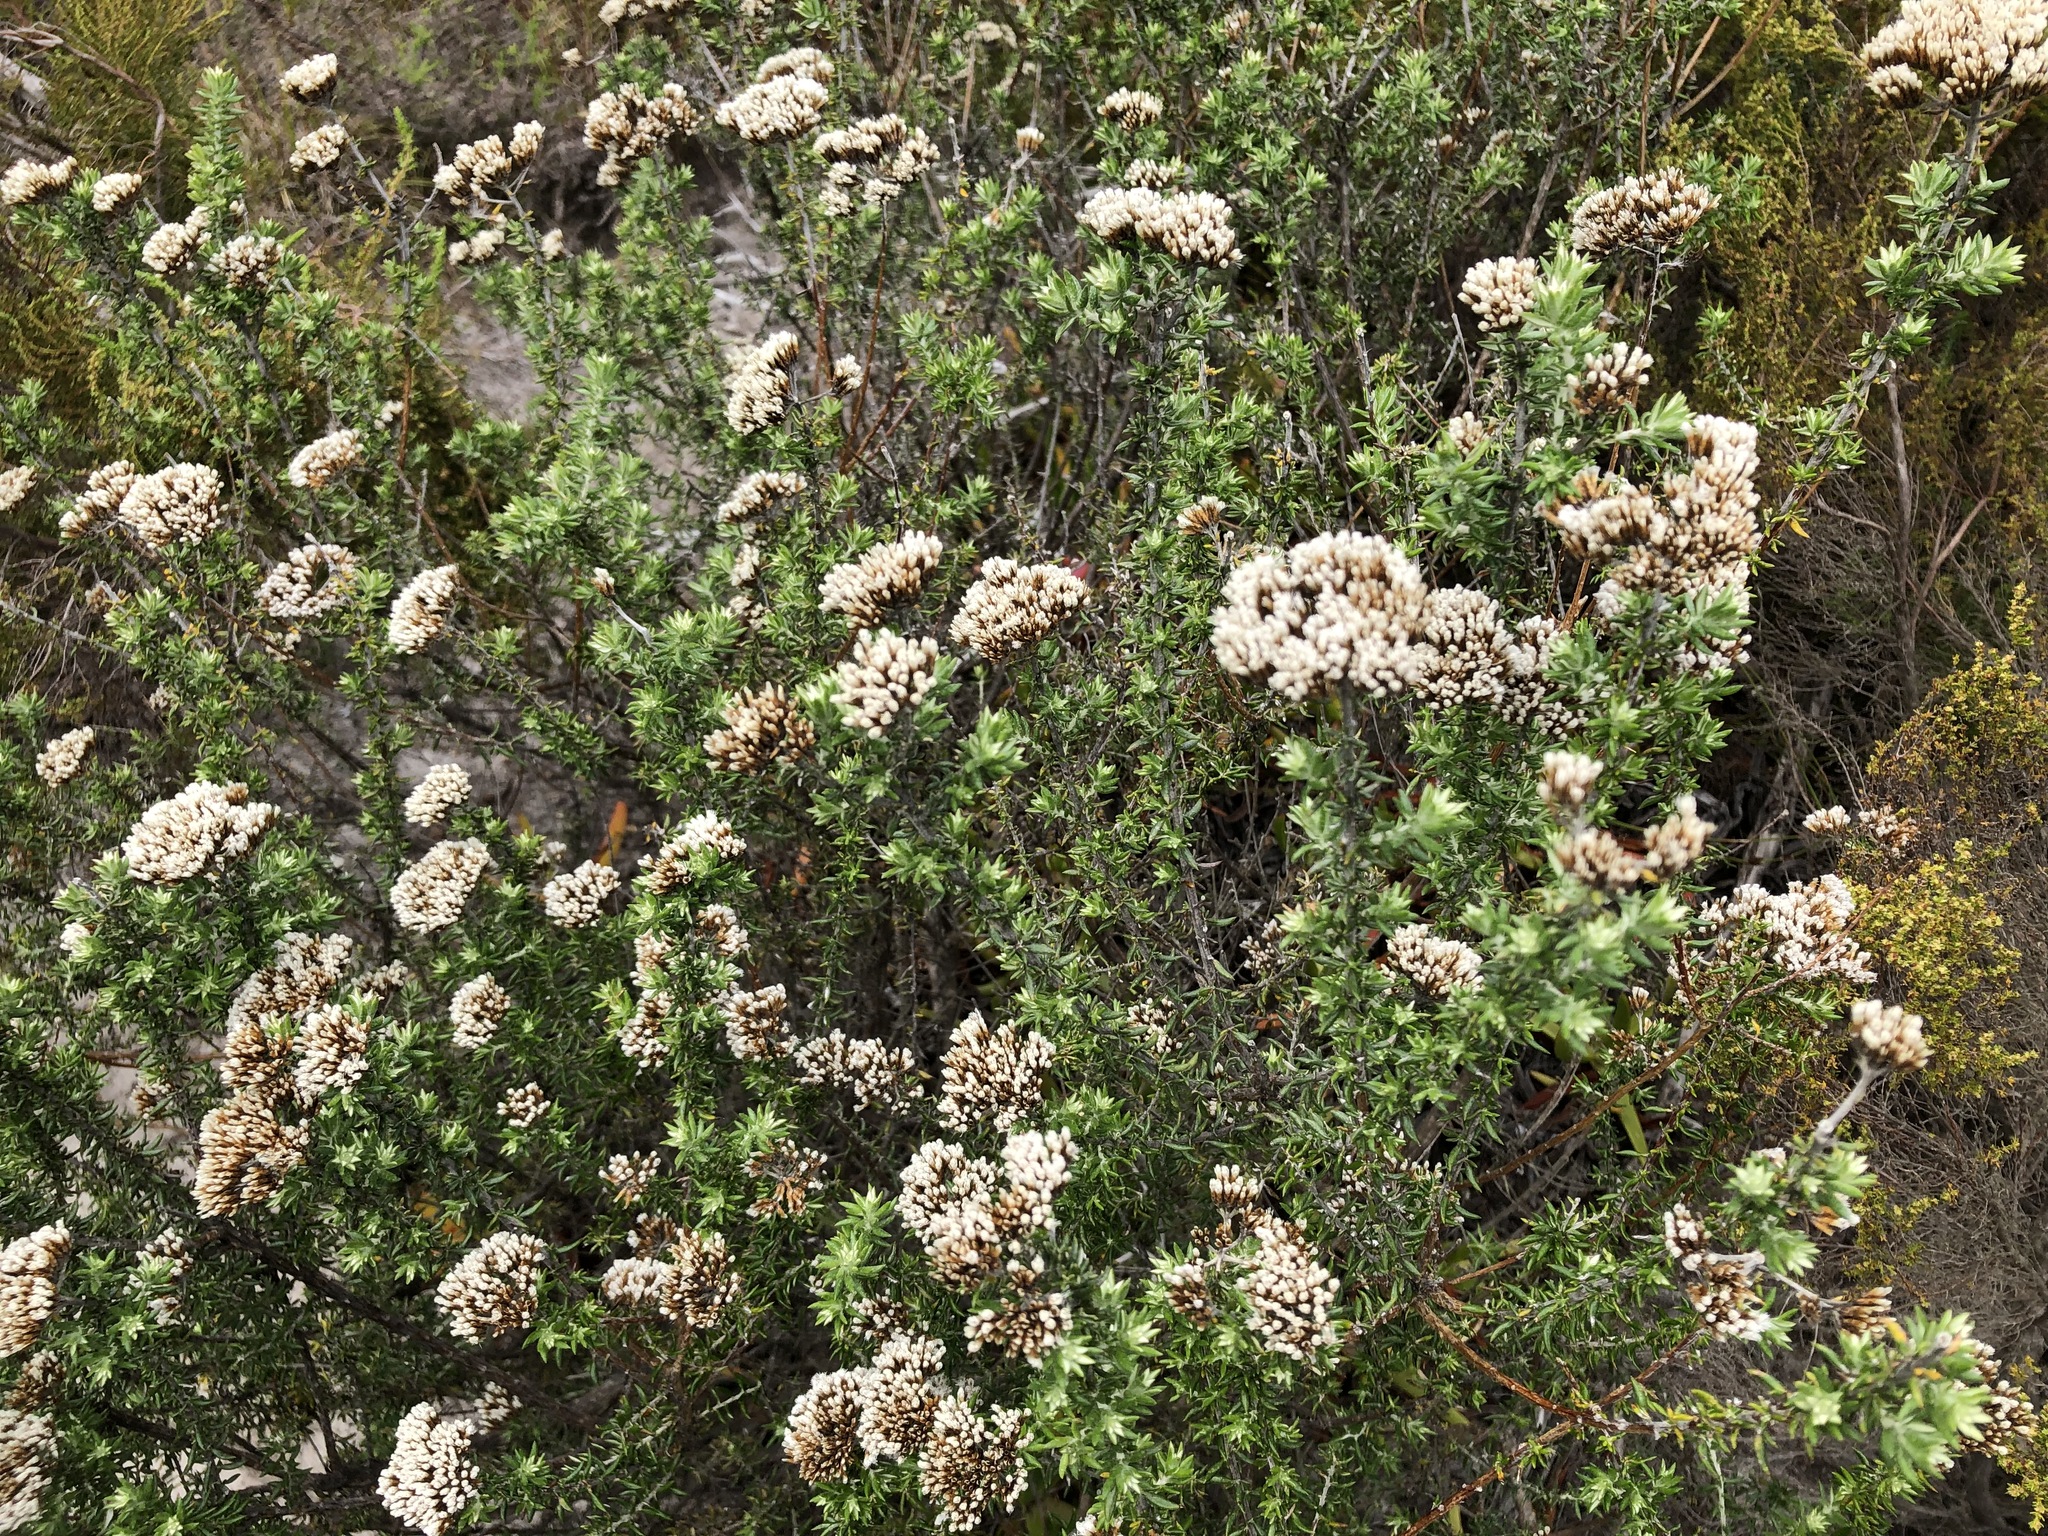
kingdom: Plantae
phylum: Tracheophyta
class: Magnoliopsida
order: Asterales
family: Asteraceae
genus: Metalasia
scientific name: Metalasia densa
